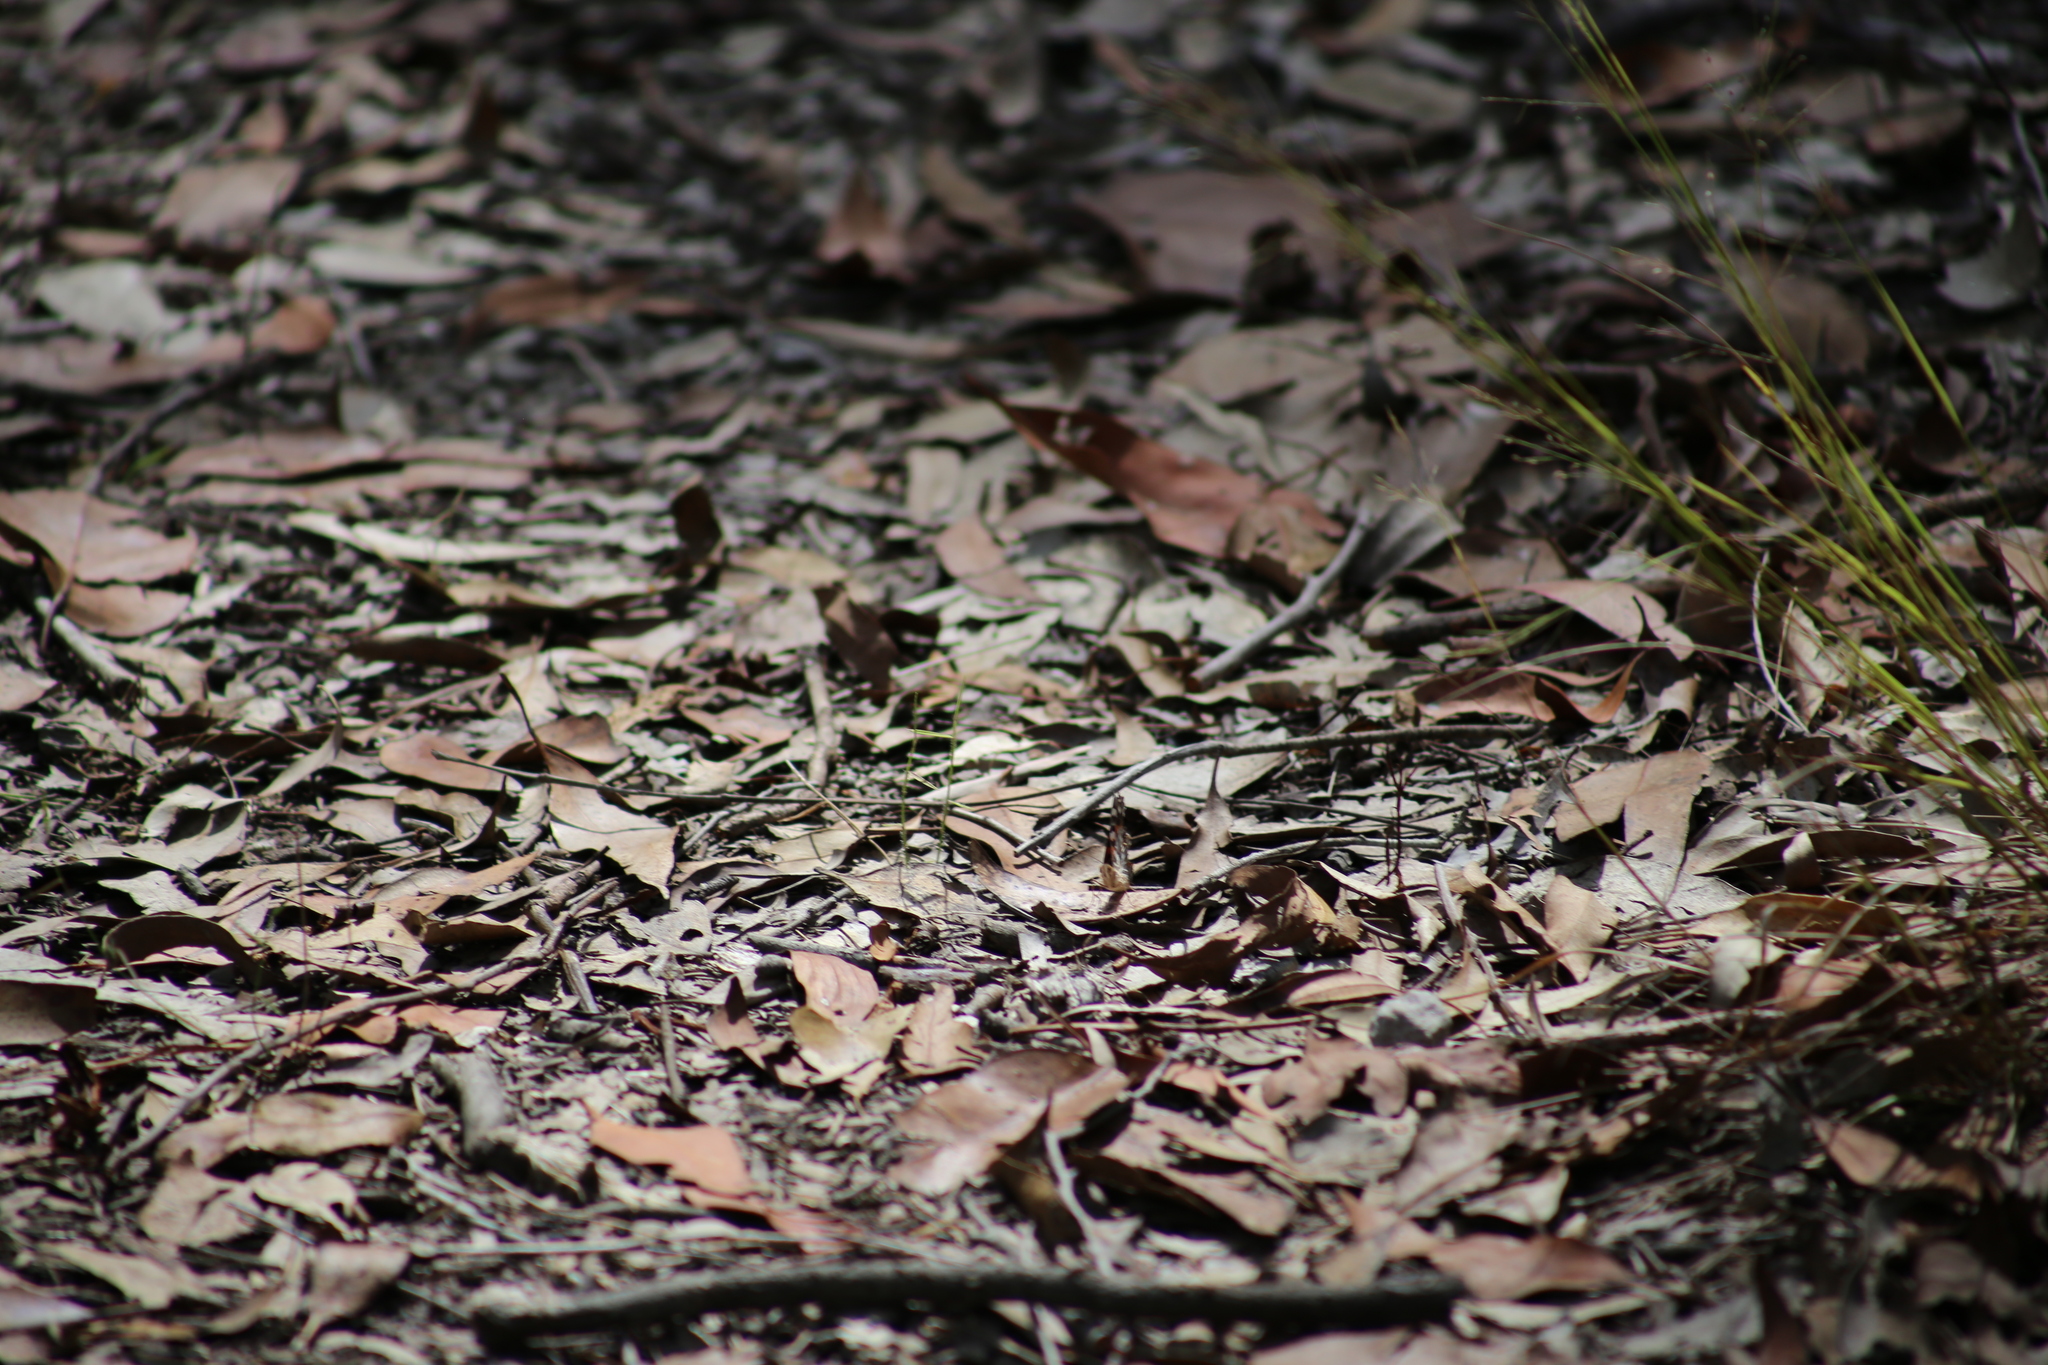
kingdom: Animalia
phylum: Arthropoda
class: Insecta
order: Lepidoptera
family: Nymphalidae
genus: Vanessa
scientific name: Vanessa kershawi
